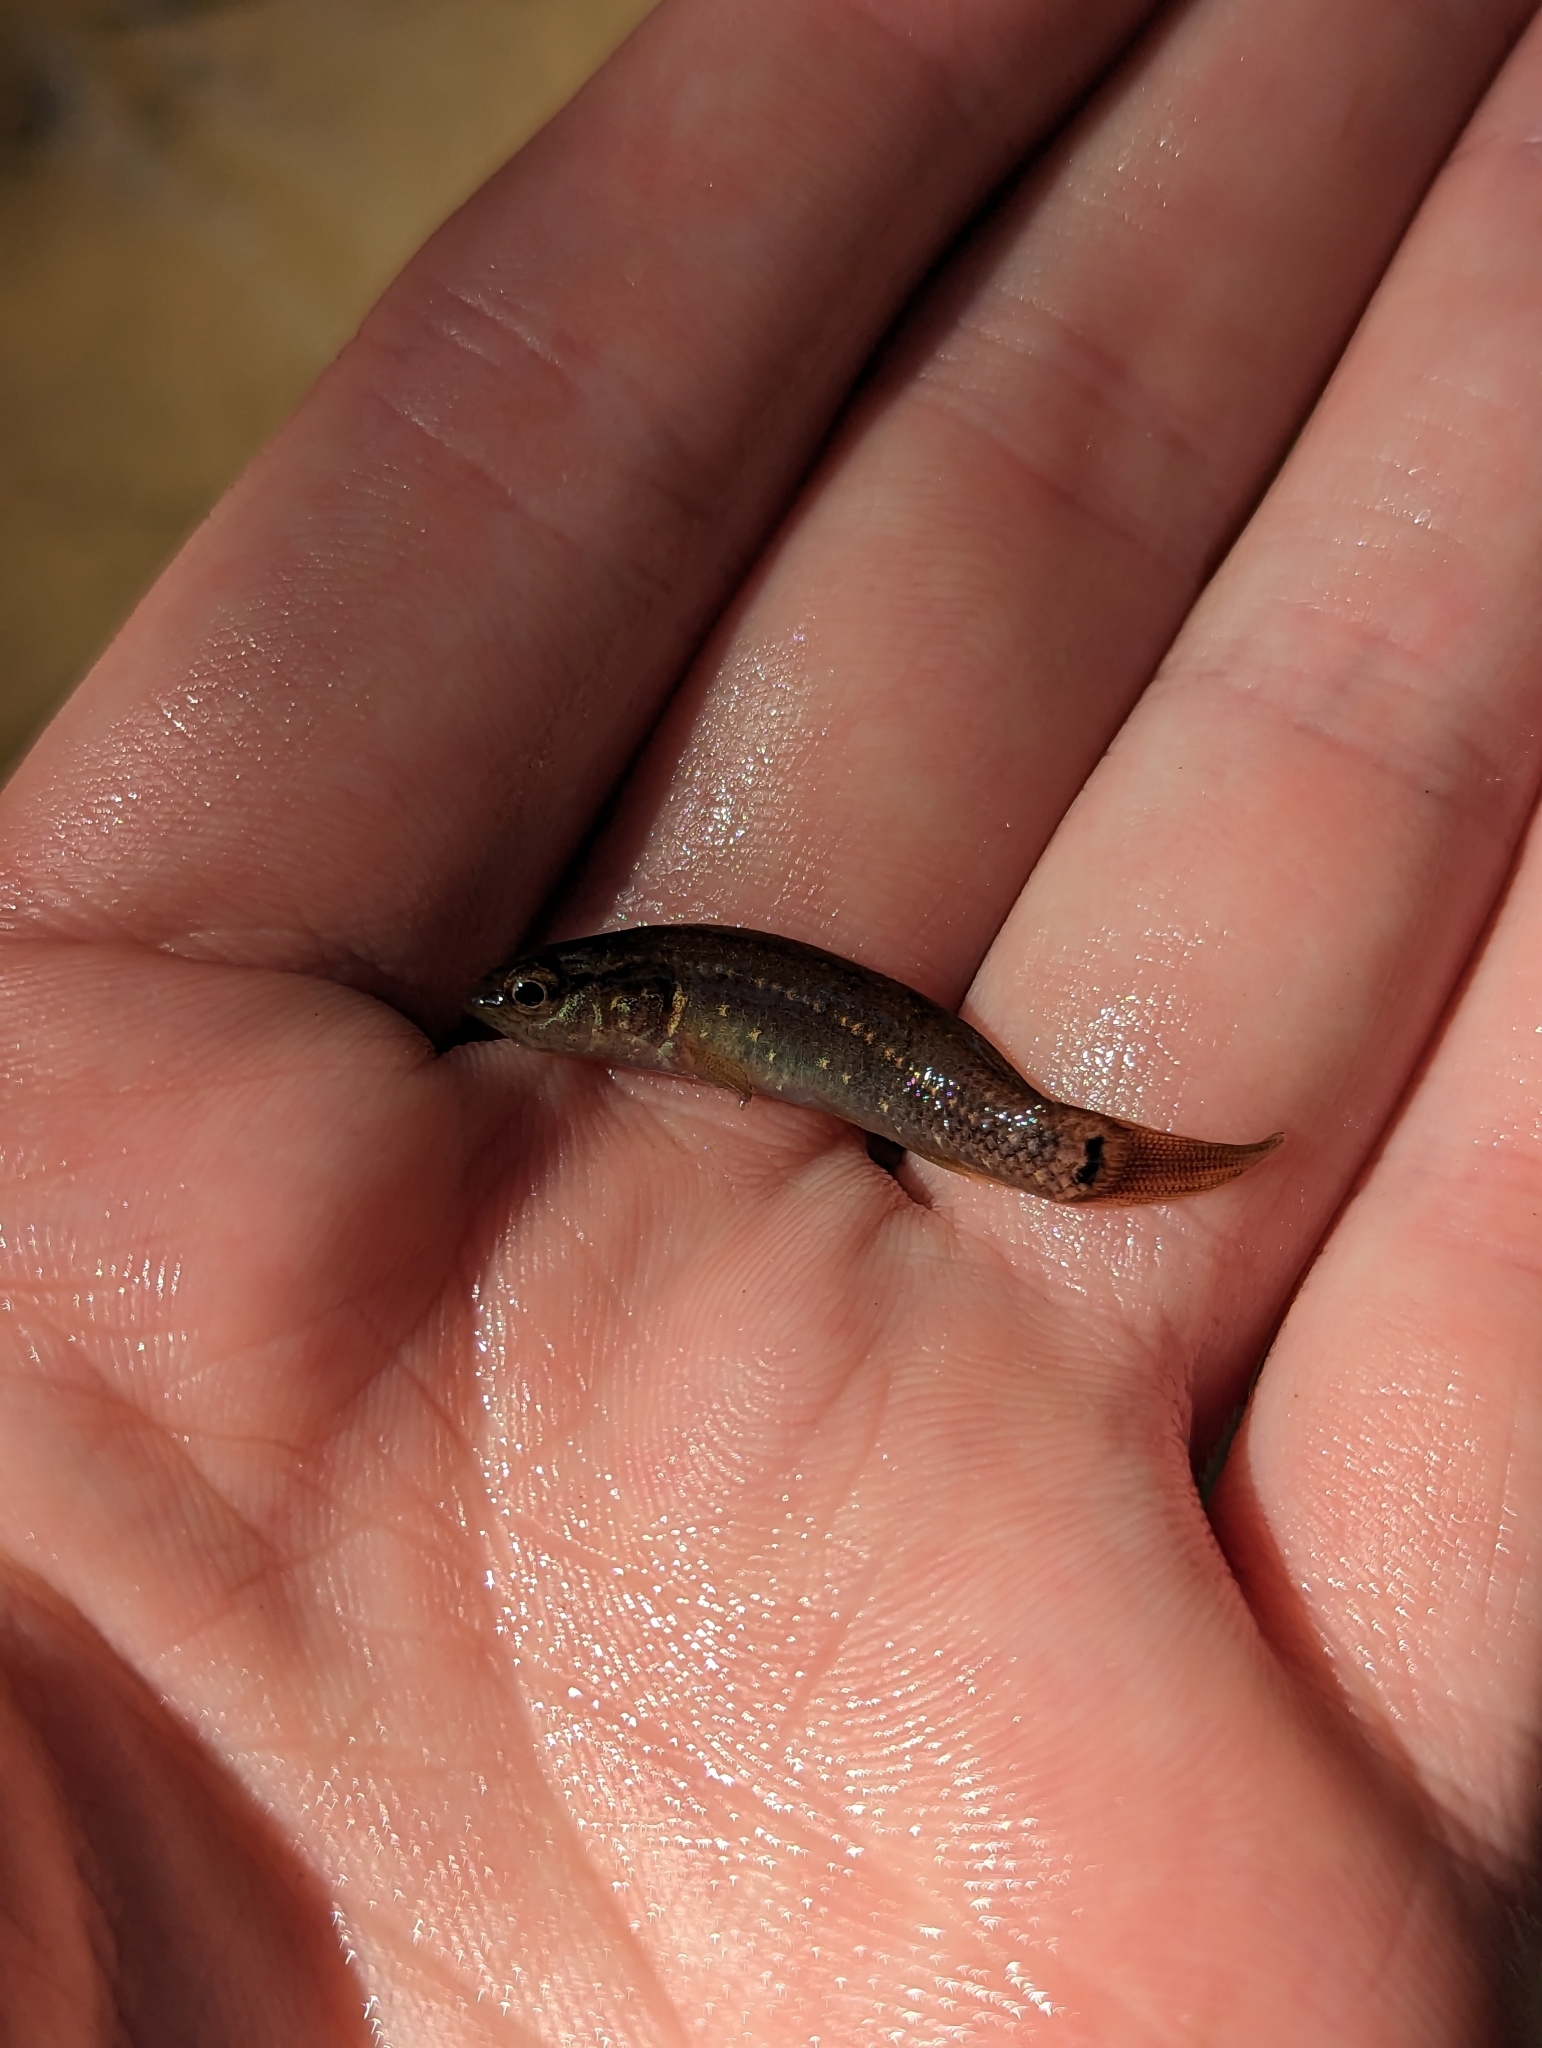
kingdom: Animalia
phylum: Chordata
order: Esociformes
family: Umbridae
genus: Umbra
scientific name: Umbra pygmaea
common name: Eastern mudminnow
